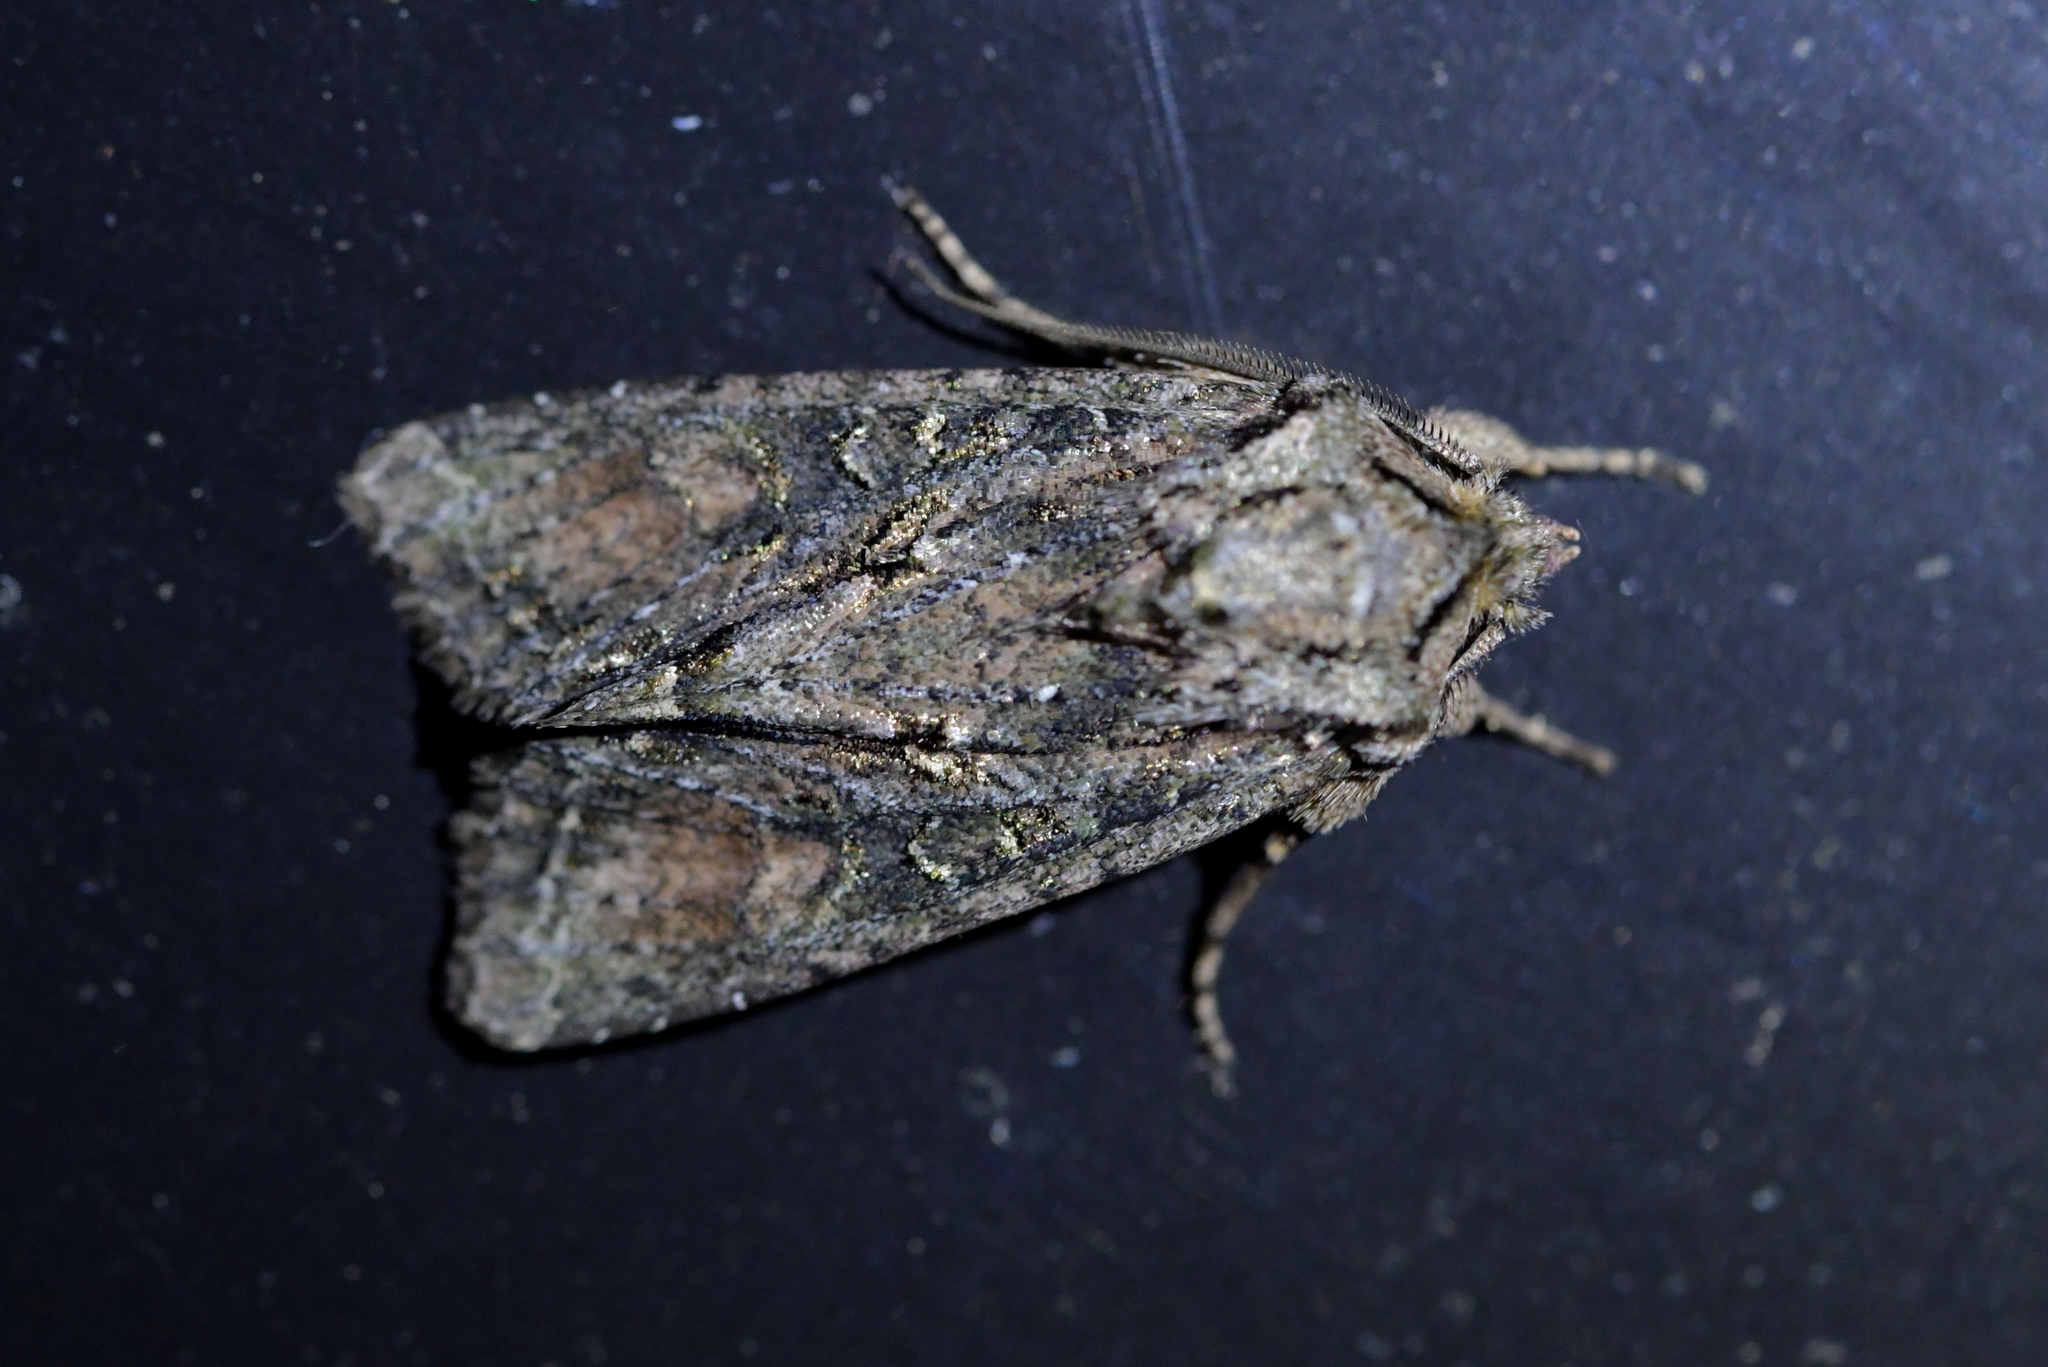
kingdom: Animalia
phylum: Arthropoda
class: Insecta
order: Lepidoptera
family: Noctuidae
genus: Ichneutica
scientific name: Ichneutica mutans
